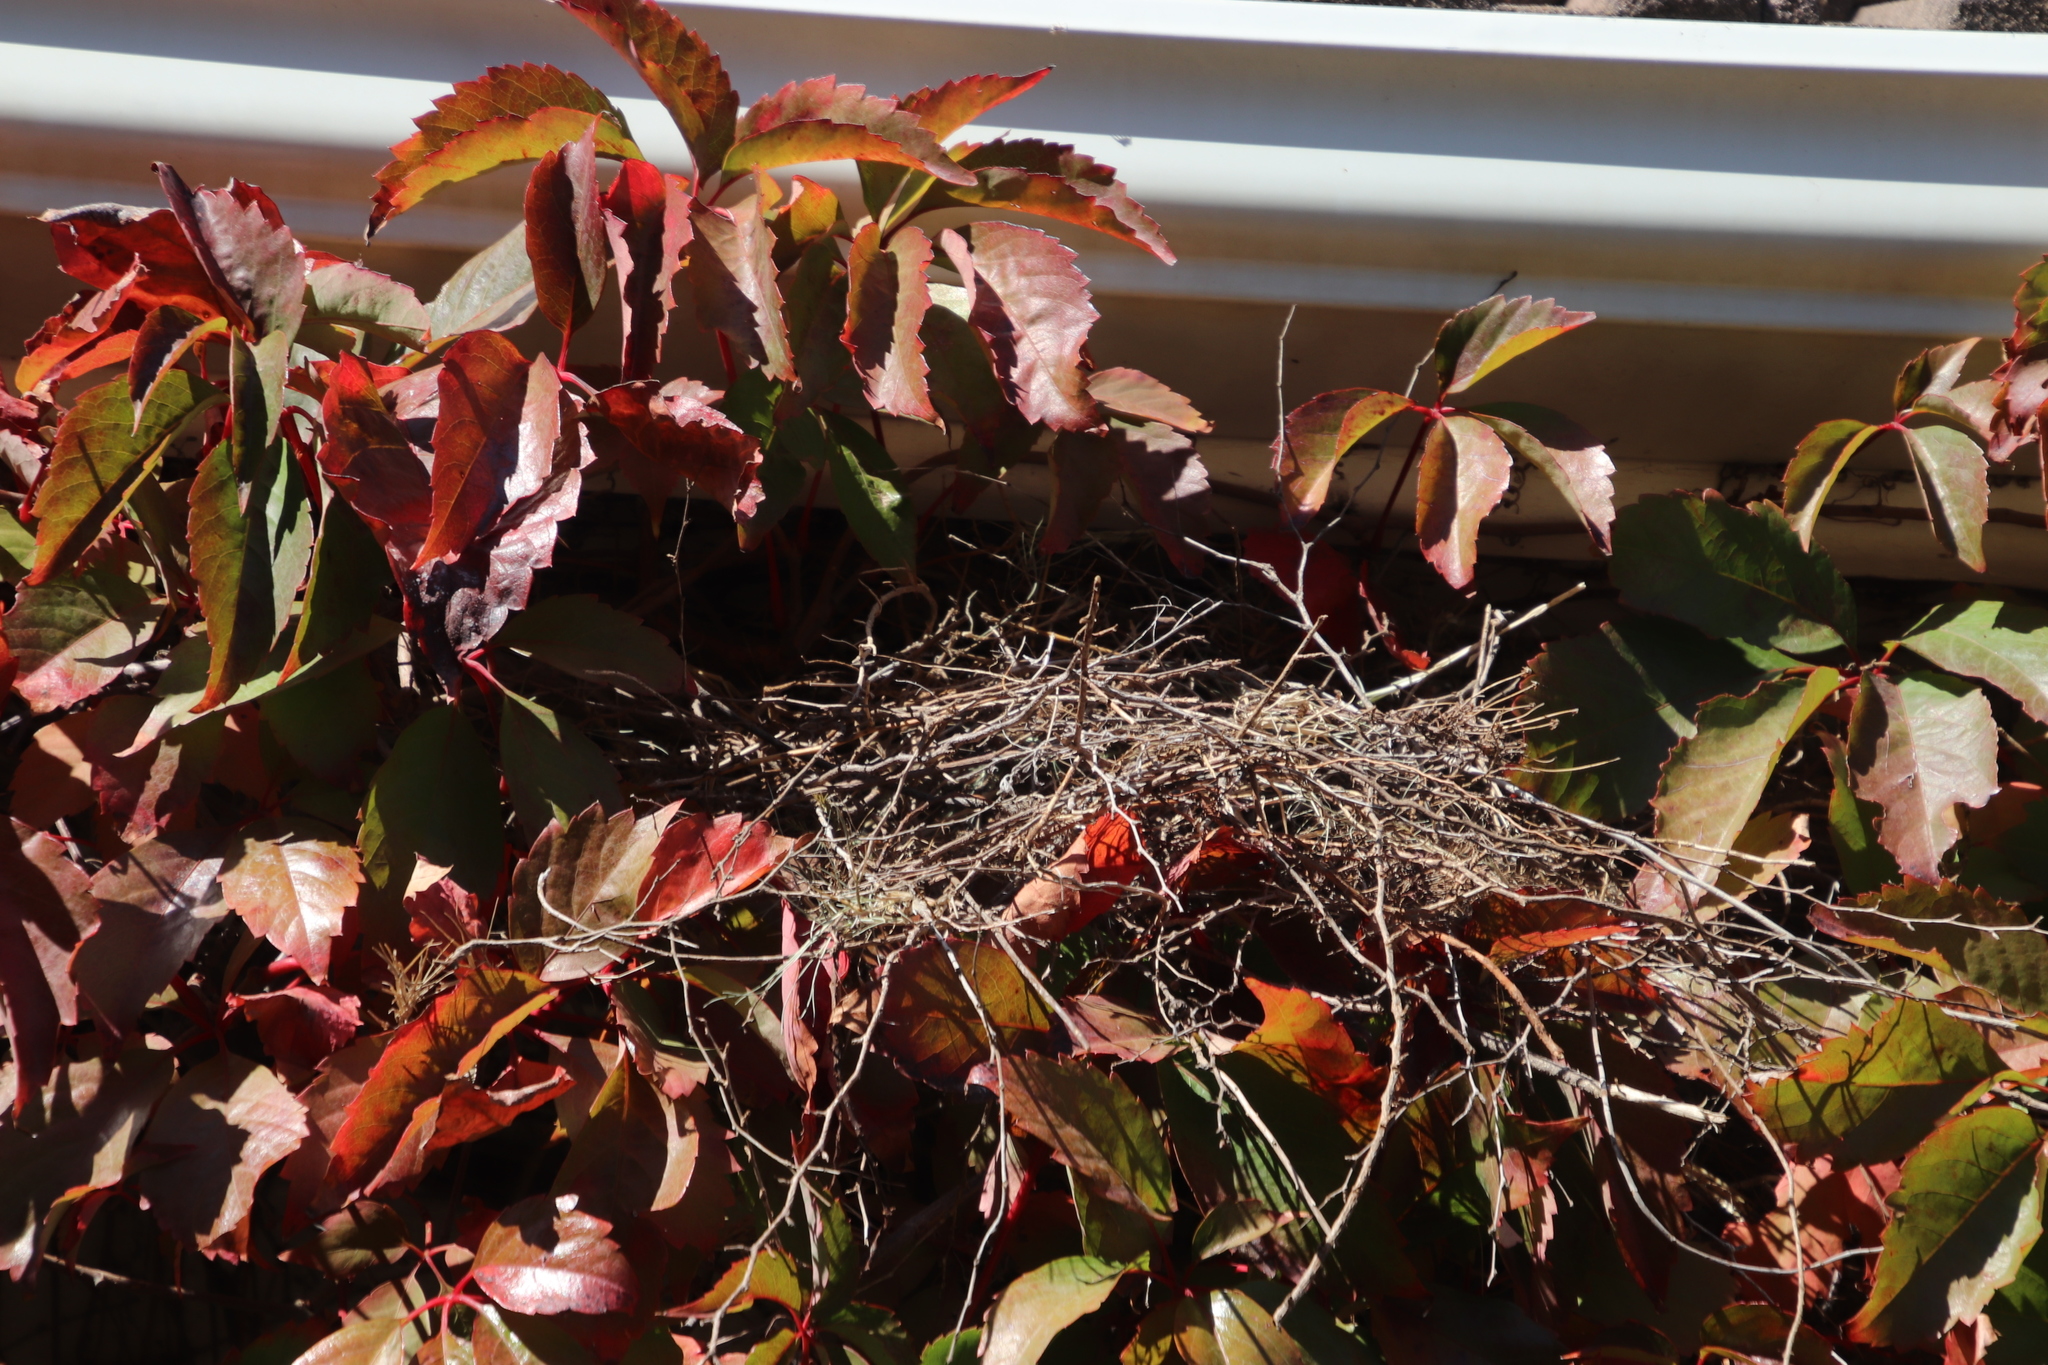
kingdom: Animalia
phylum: Chordata
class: Aves
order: Passeriformes
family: Passeridae
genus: Passer
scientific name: Passer melanurus
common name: Cape sparrow
